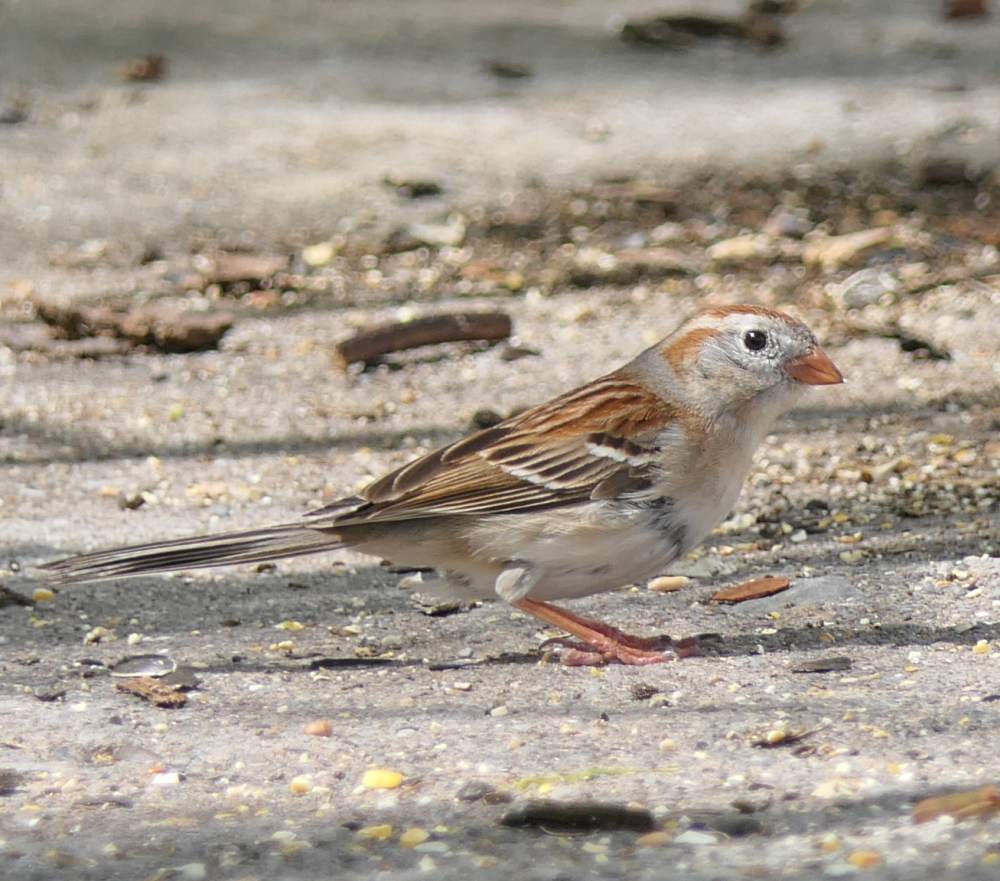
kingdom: Animalia
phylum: Chordata
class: Aves
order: Passeriformes
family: Passerellidae
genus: Spizella
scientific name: Spizella pusilla
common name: Field sparrow
